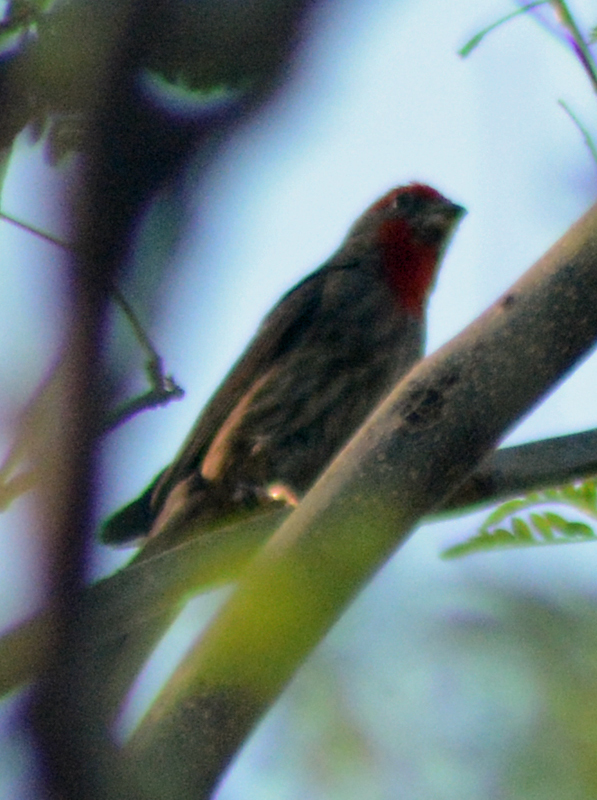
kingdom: Animalia
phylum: Chordata
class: Aves
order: Passeriformes
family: Fringillidae
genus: Haemorhous
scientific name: Haemorhous mexicanus
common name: House finch
